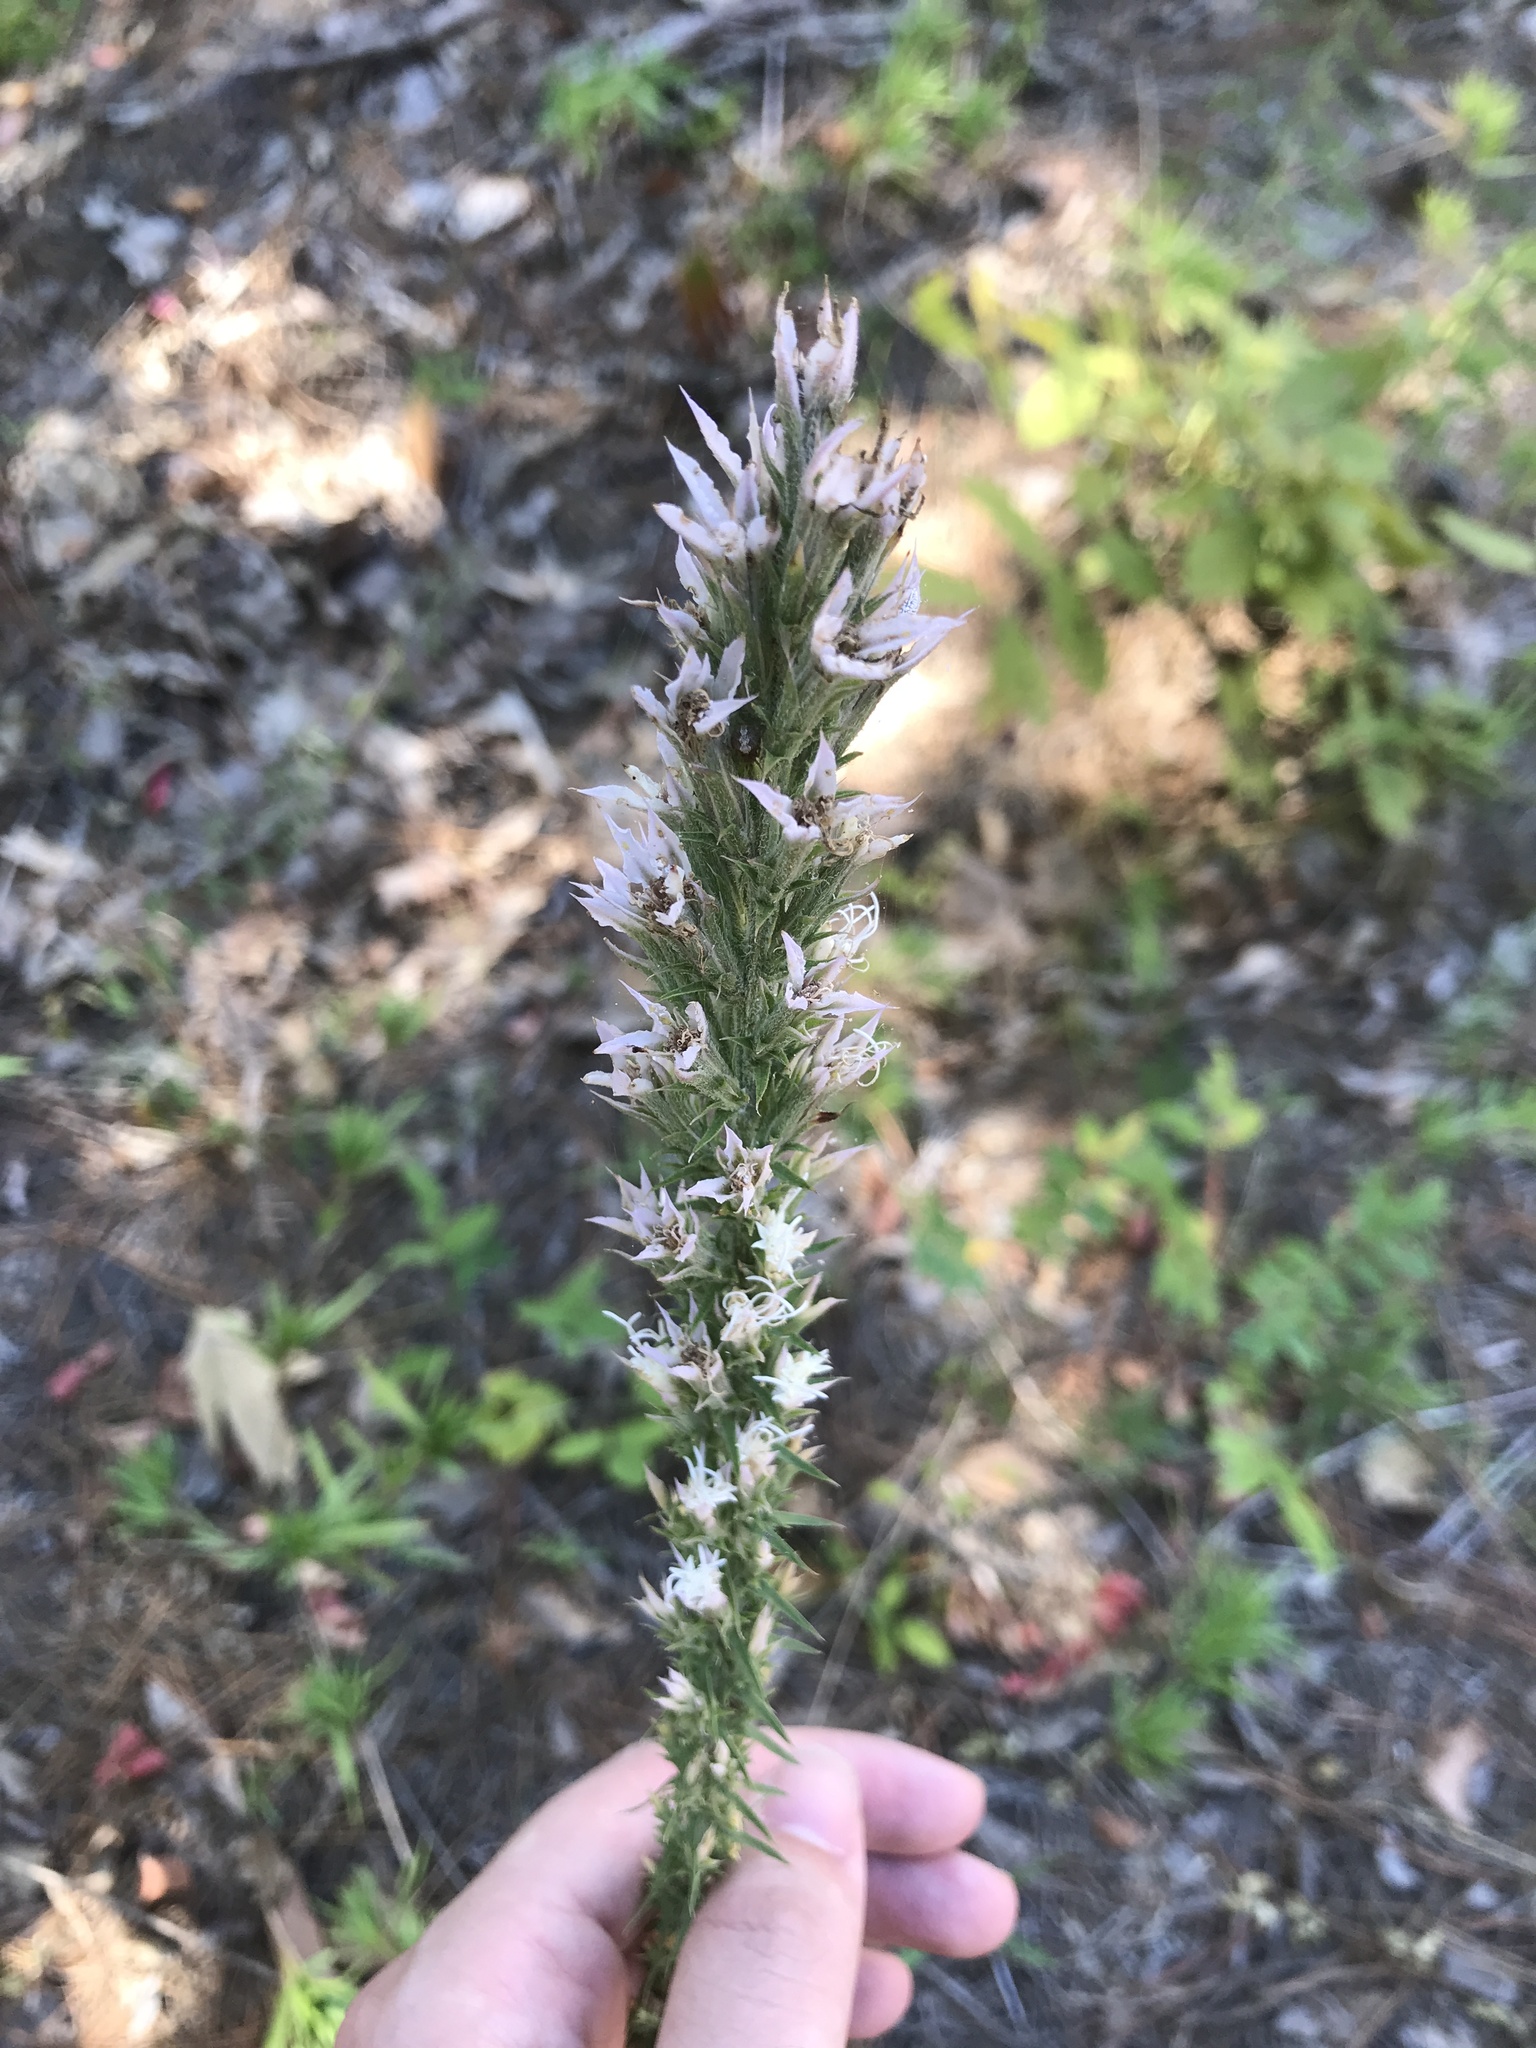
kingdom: Plantae
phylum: Tracheophyta
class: Magnoliopsida
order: Asterales
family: Asteraceae
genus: Liatris
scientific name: Liatris hesperelegans
